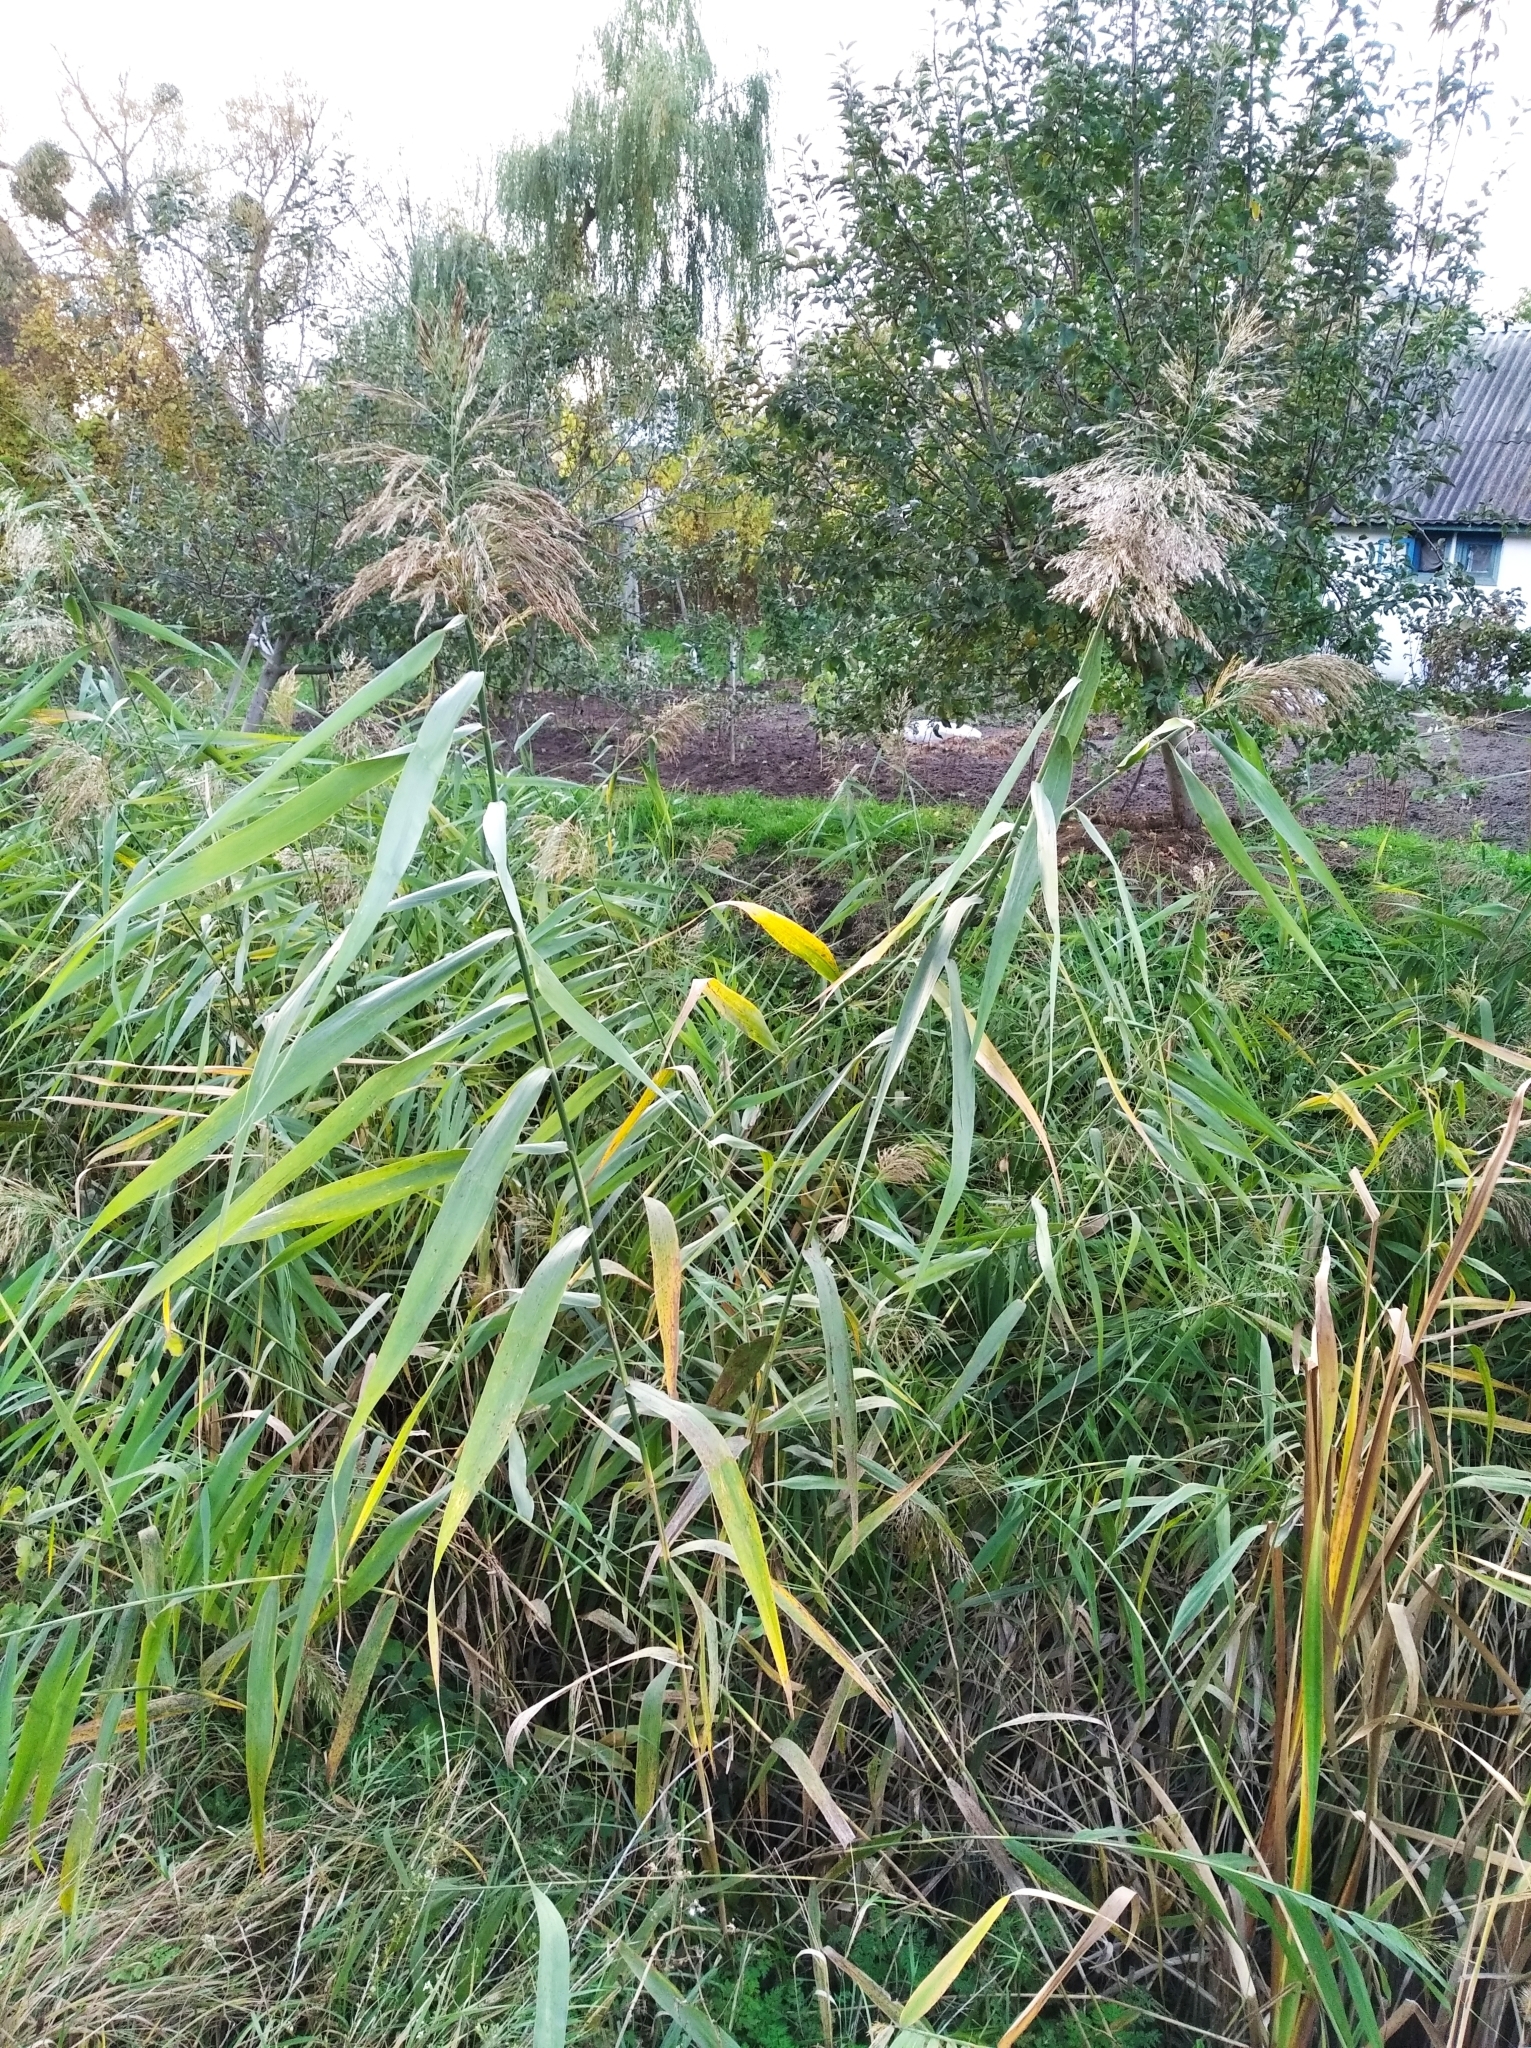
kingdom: Plantae
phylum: Tracheophyta
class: Liliopsida
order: Poales
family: Poaceae
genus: Phragmites
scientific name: Phragmites australis
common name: Common reed
